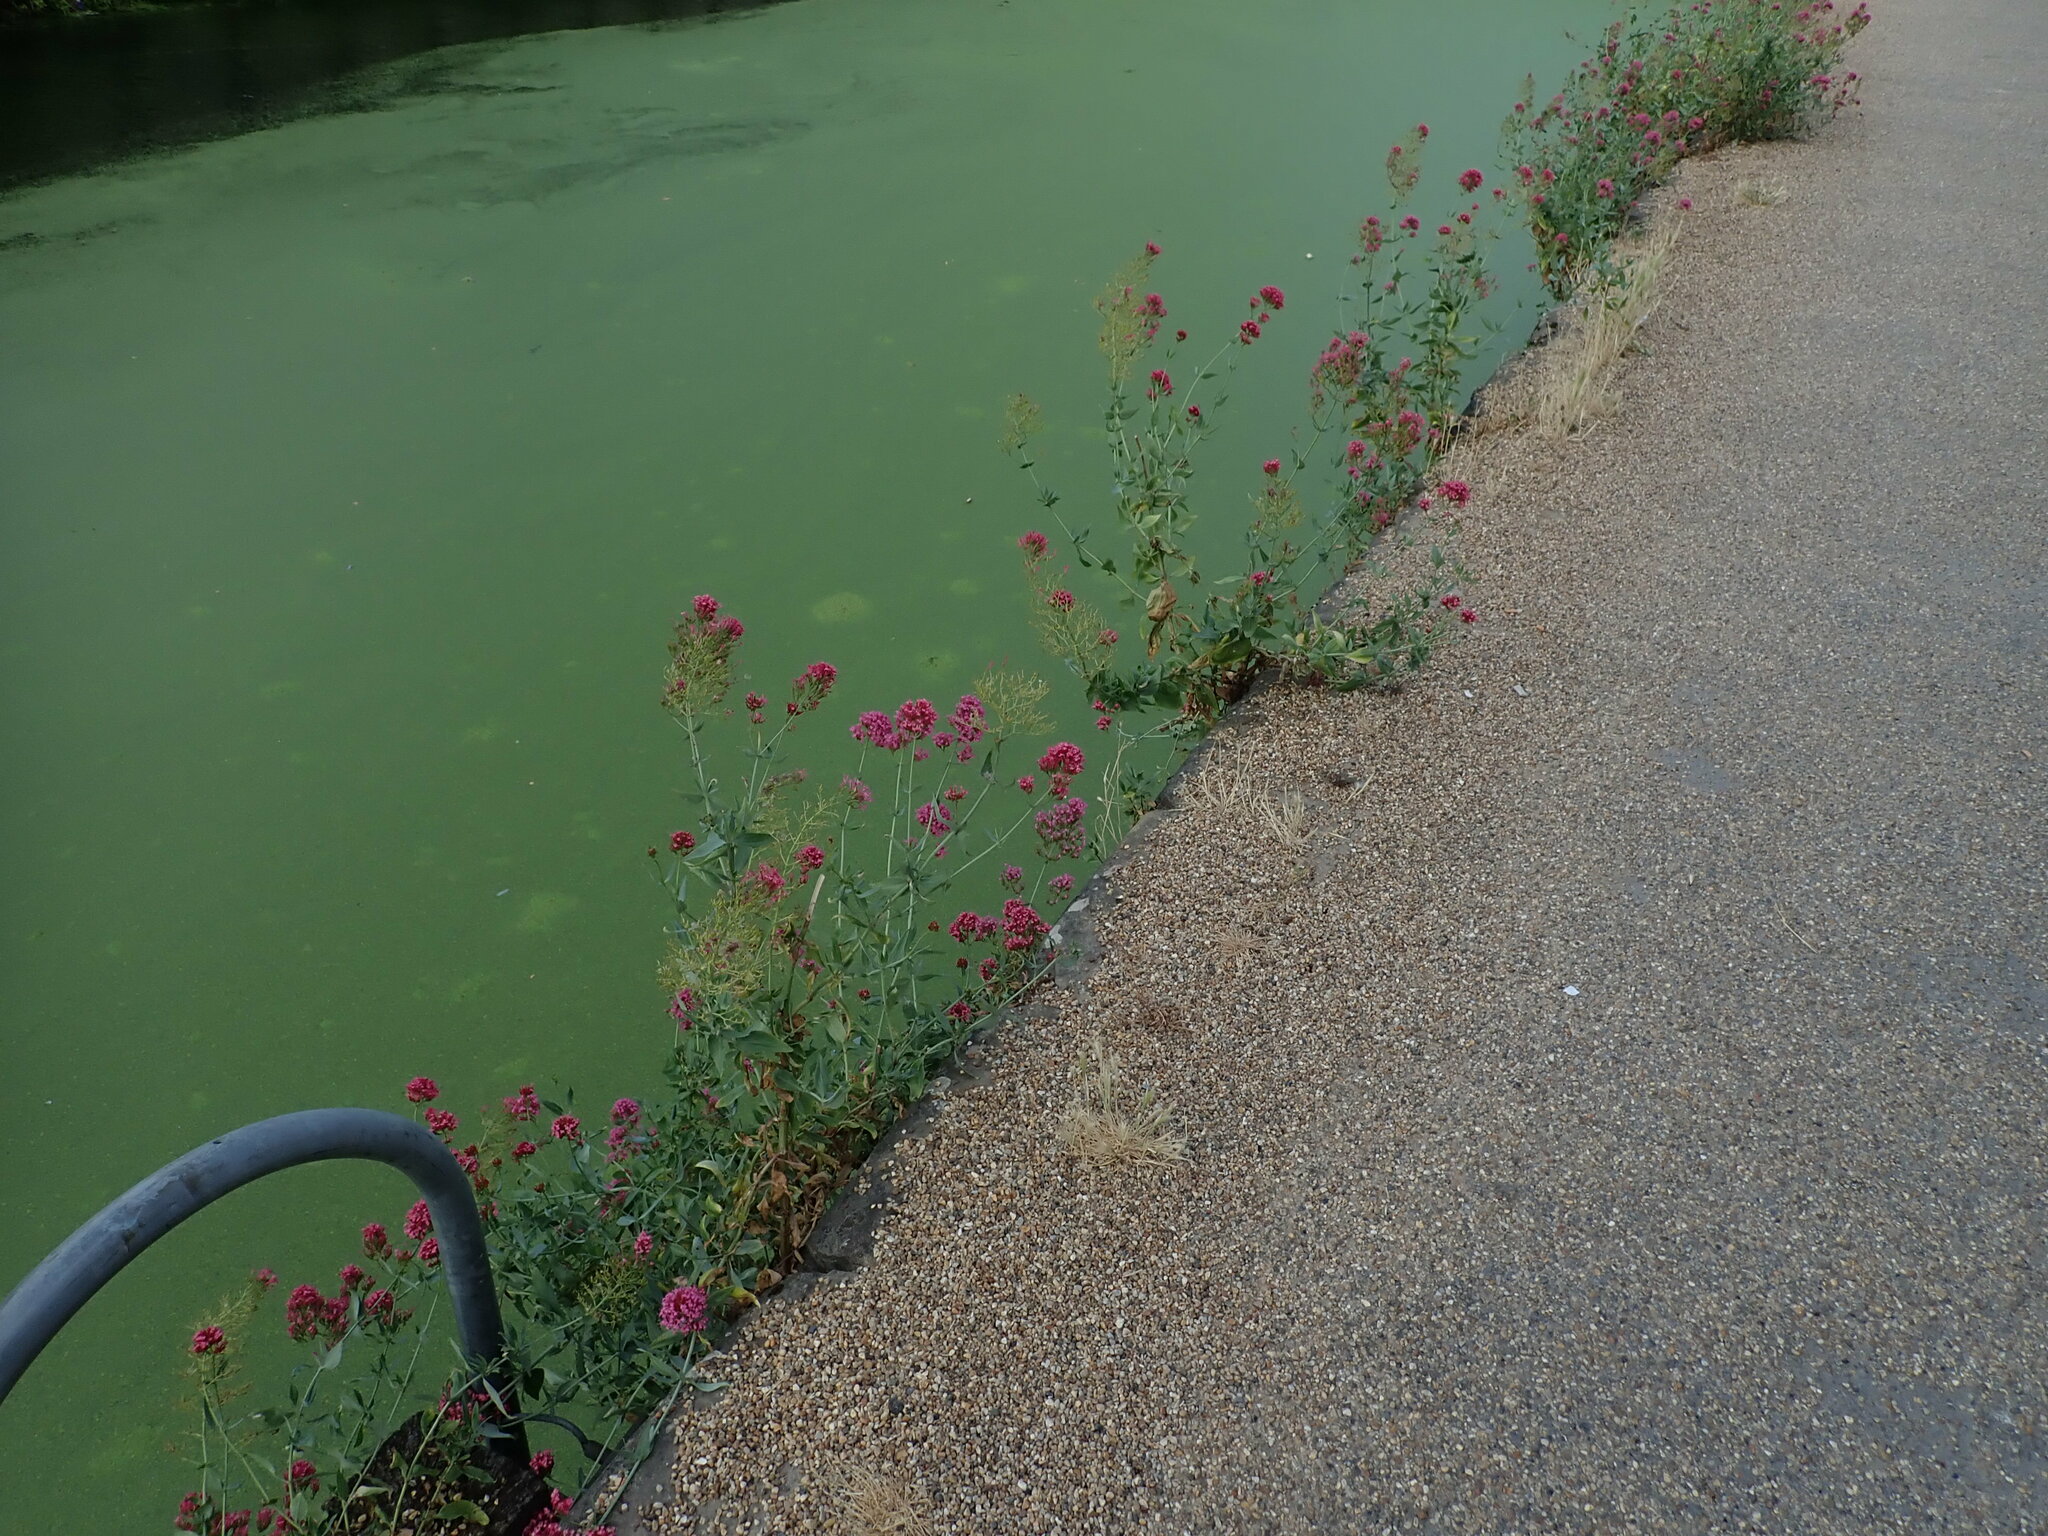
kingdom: Plantae
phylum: Tracheophyta
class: Magnoliopsida
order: Dipsacales
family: Caprifoliaceae
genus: Centranthus
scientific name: Centranthus ruber
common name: Red valerian
